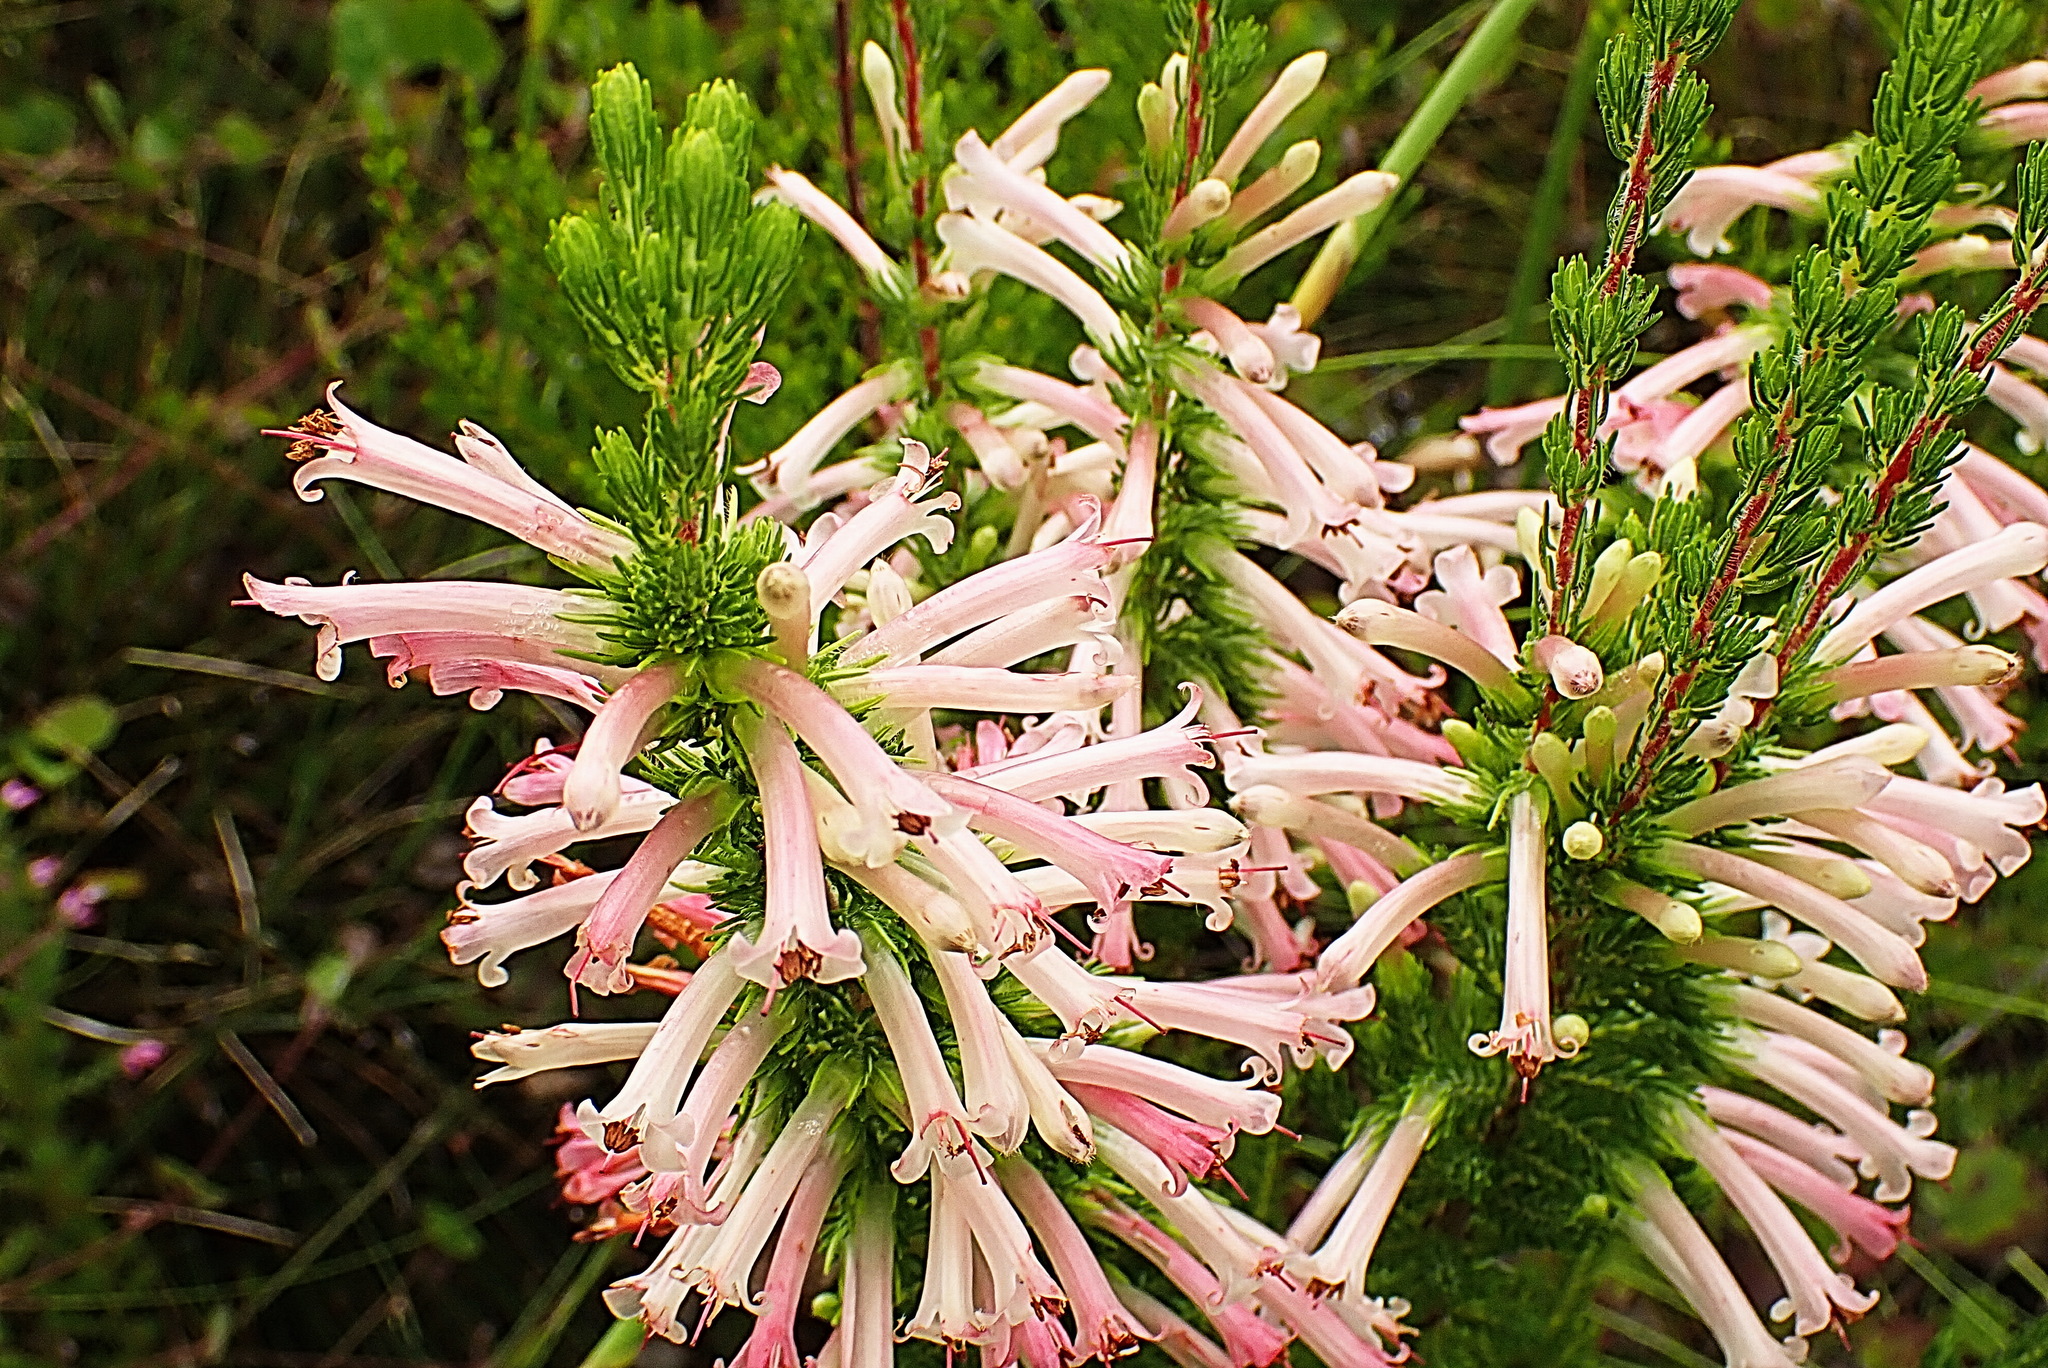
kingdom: Plantae
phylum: Tracheophyta
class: Magnoliopsida
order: Ericales
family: Ericaceae
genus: Erica
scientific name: Erica curviflora
